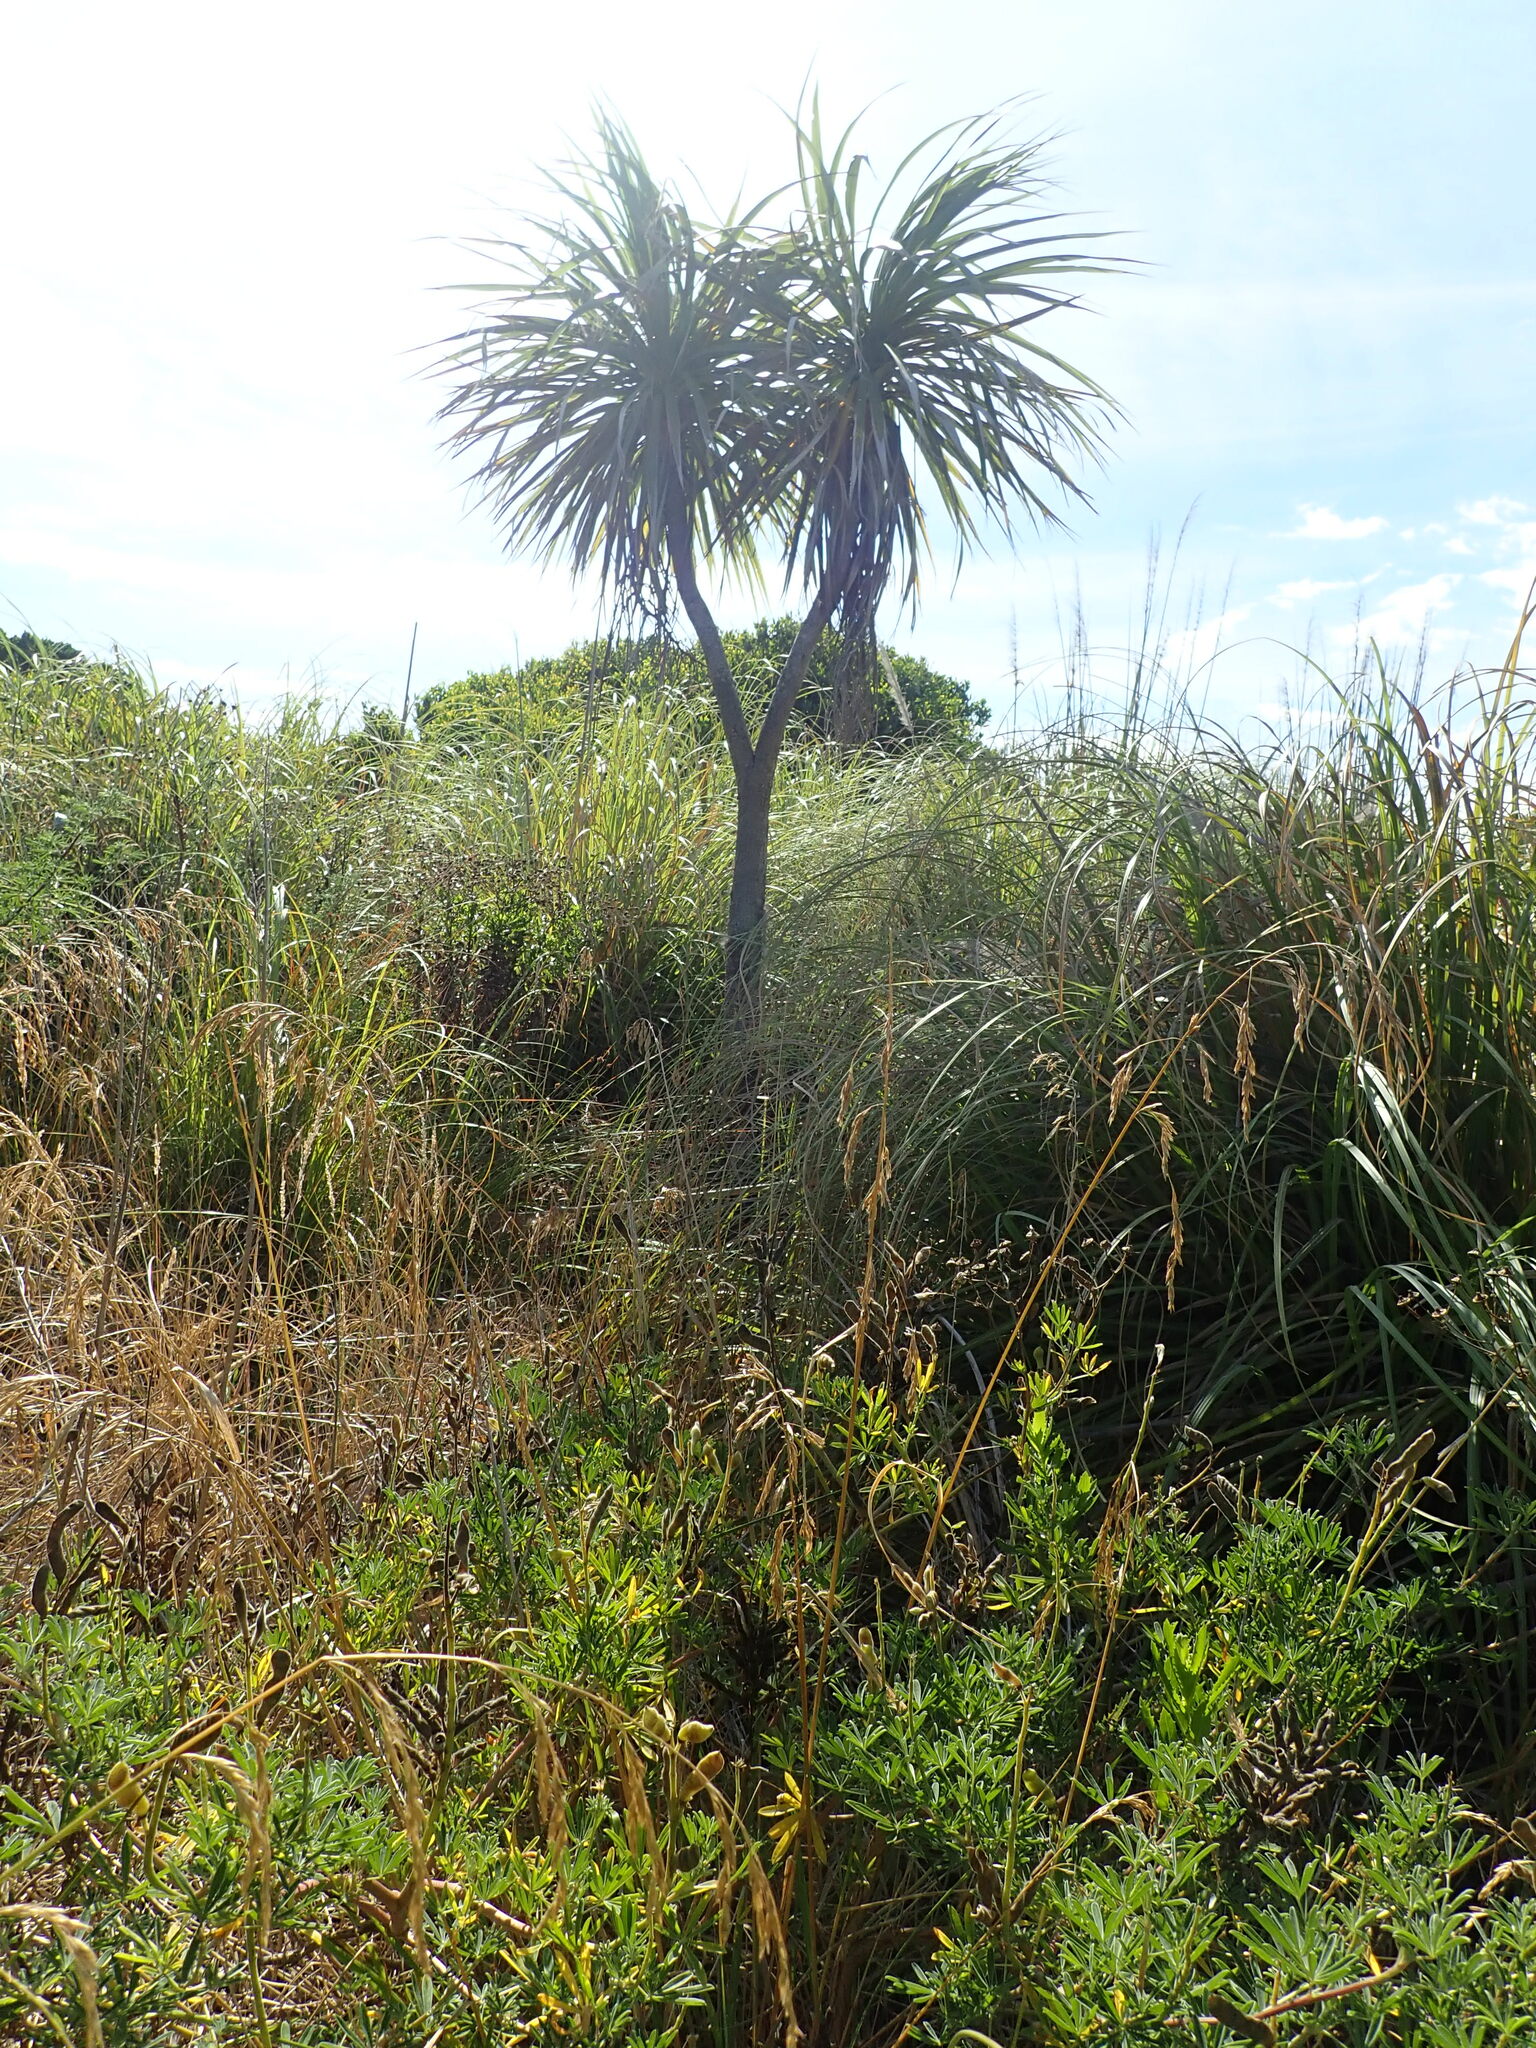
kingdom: Plantae
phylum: Tracheophyta
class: Liliopsida
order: Asparagales
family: Asparagaceae
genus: Cordyline
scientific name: Cordyline australis
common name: Cabbage-palm
